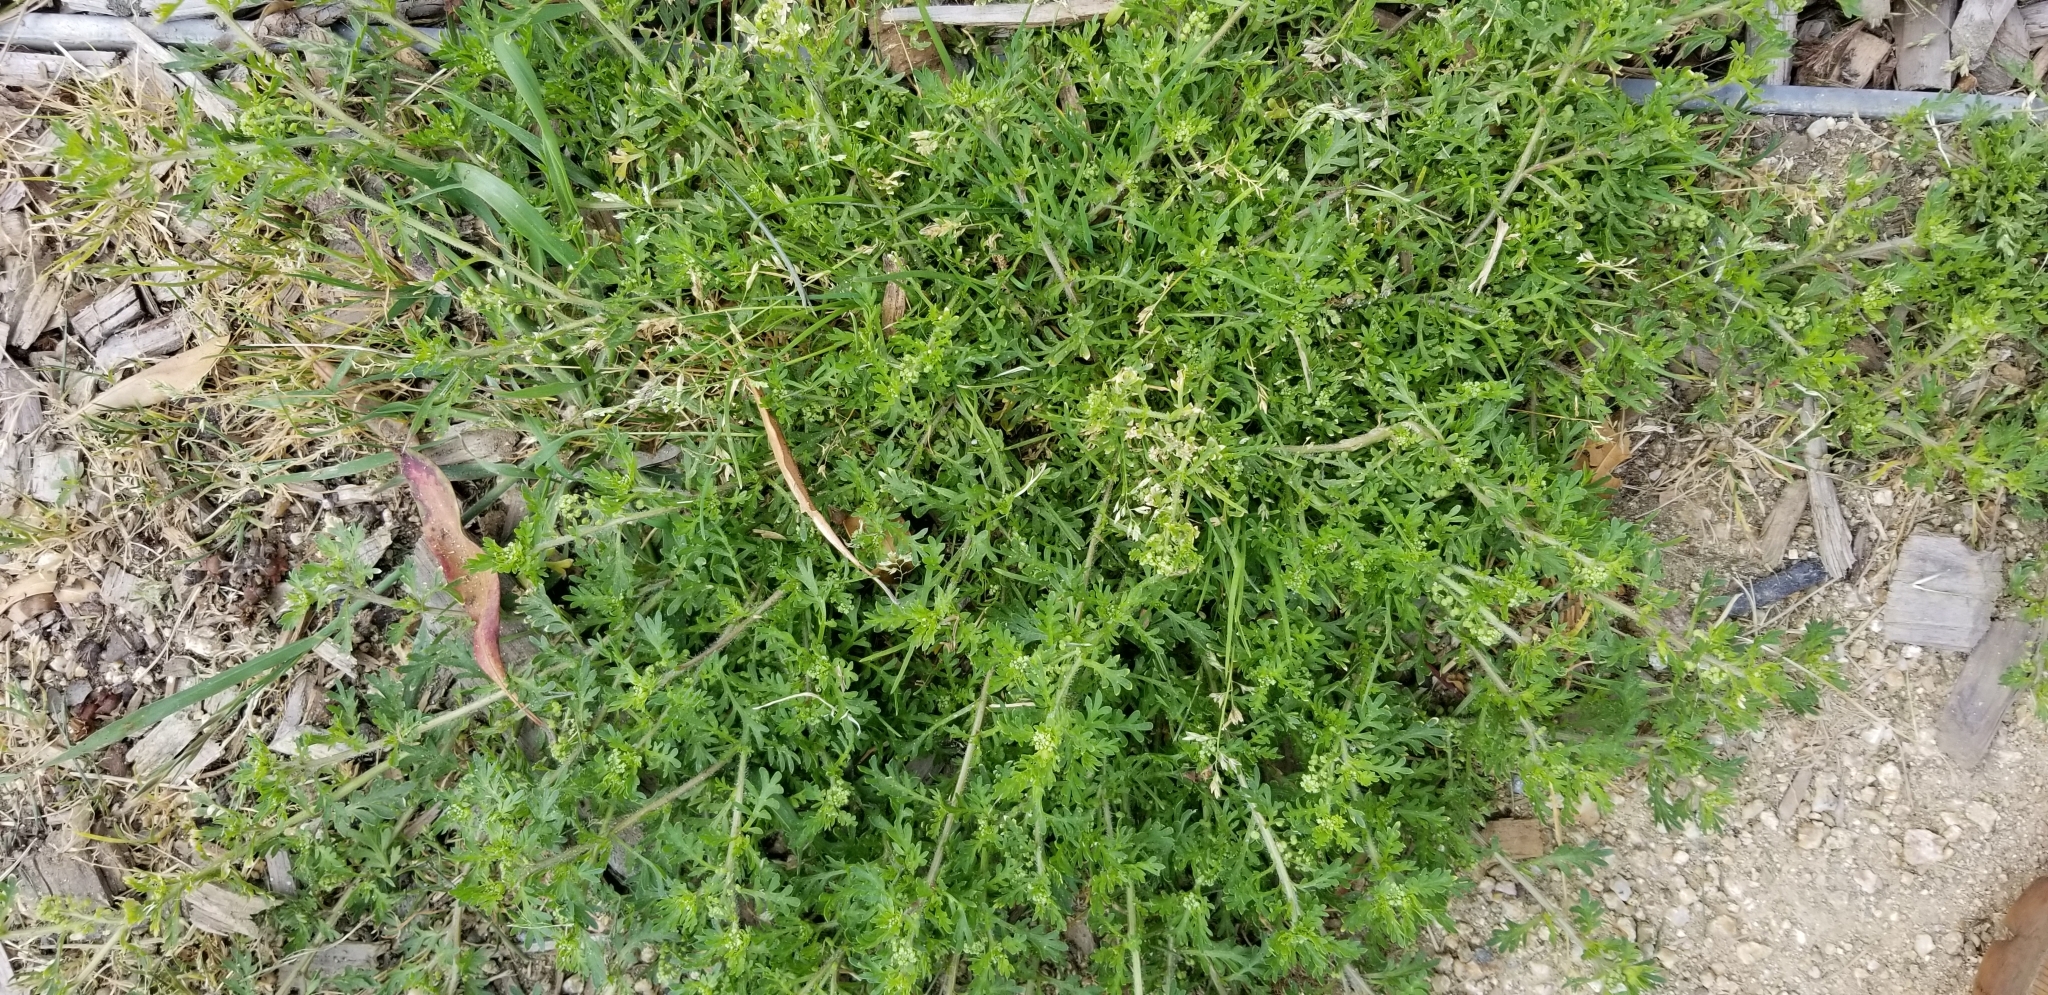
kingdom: Plantae
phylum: Tracheophyta
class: Magnoliopsida
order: Brassicales
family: Brassicaceae
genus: Lepidium
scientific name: Lepidium didymum
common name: Lesser swinecress
